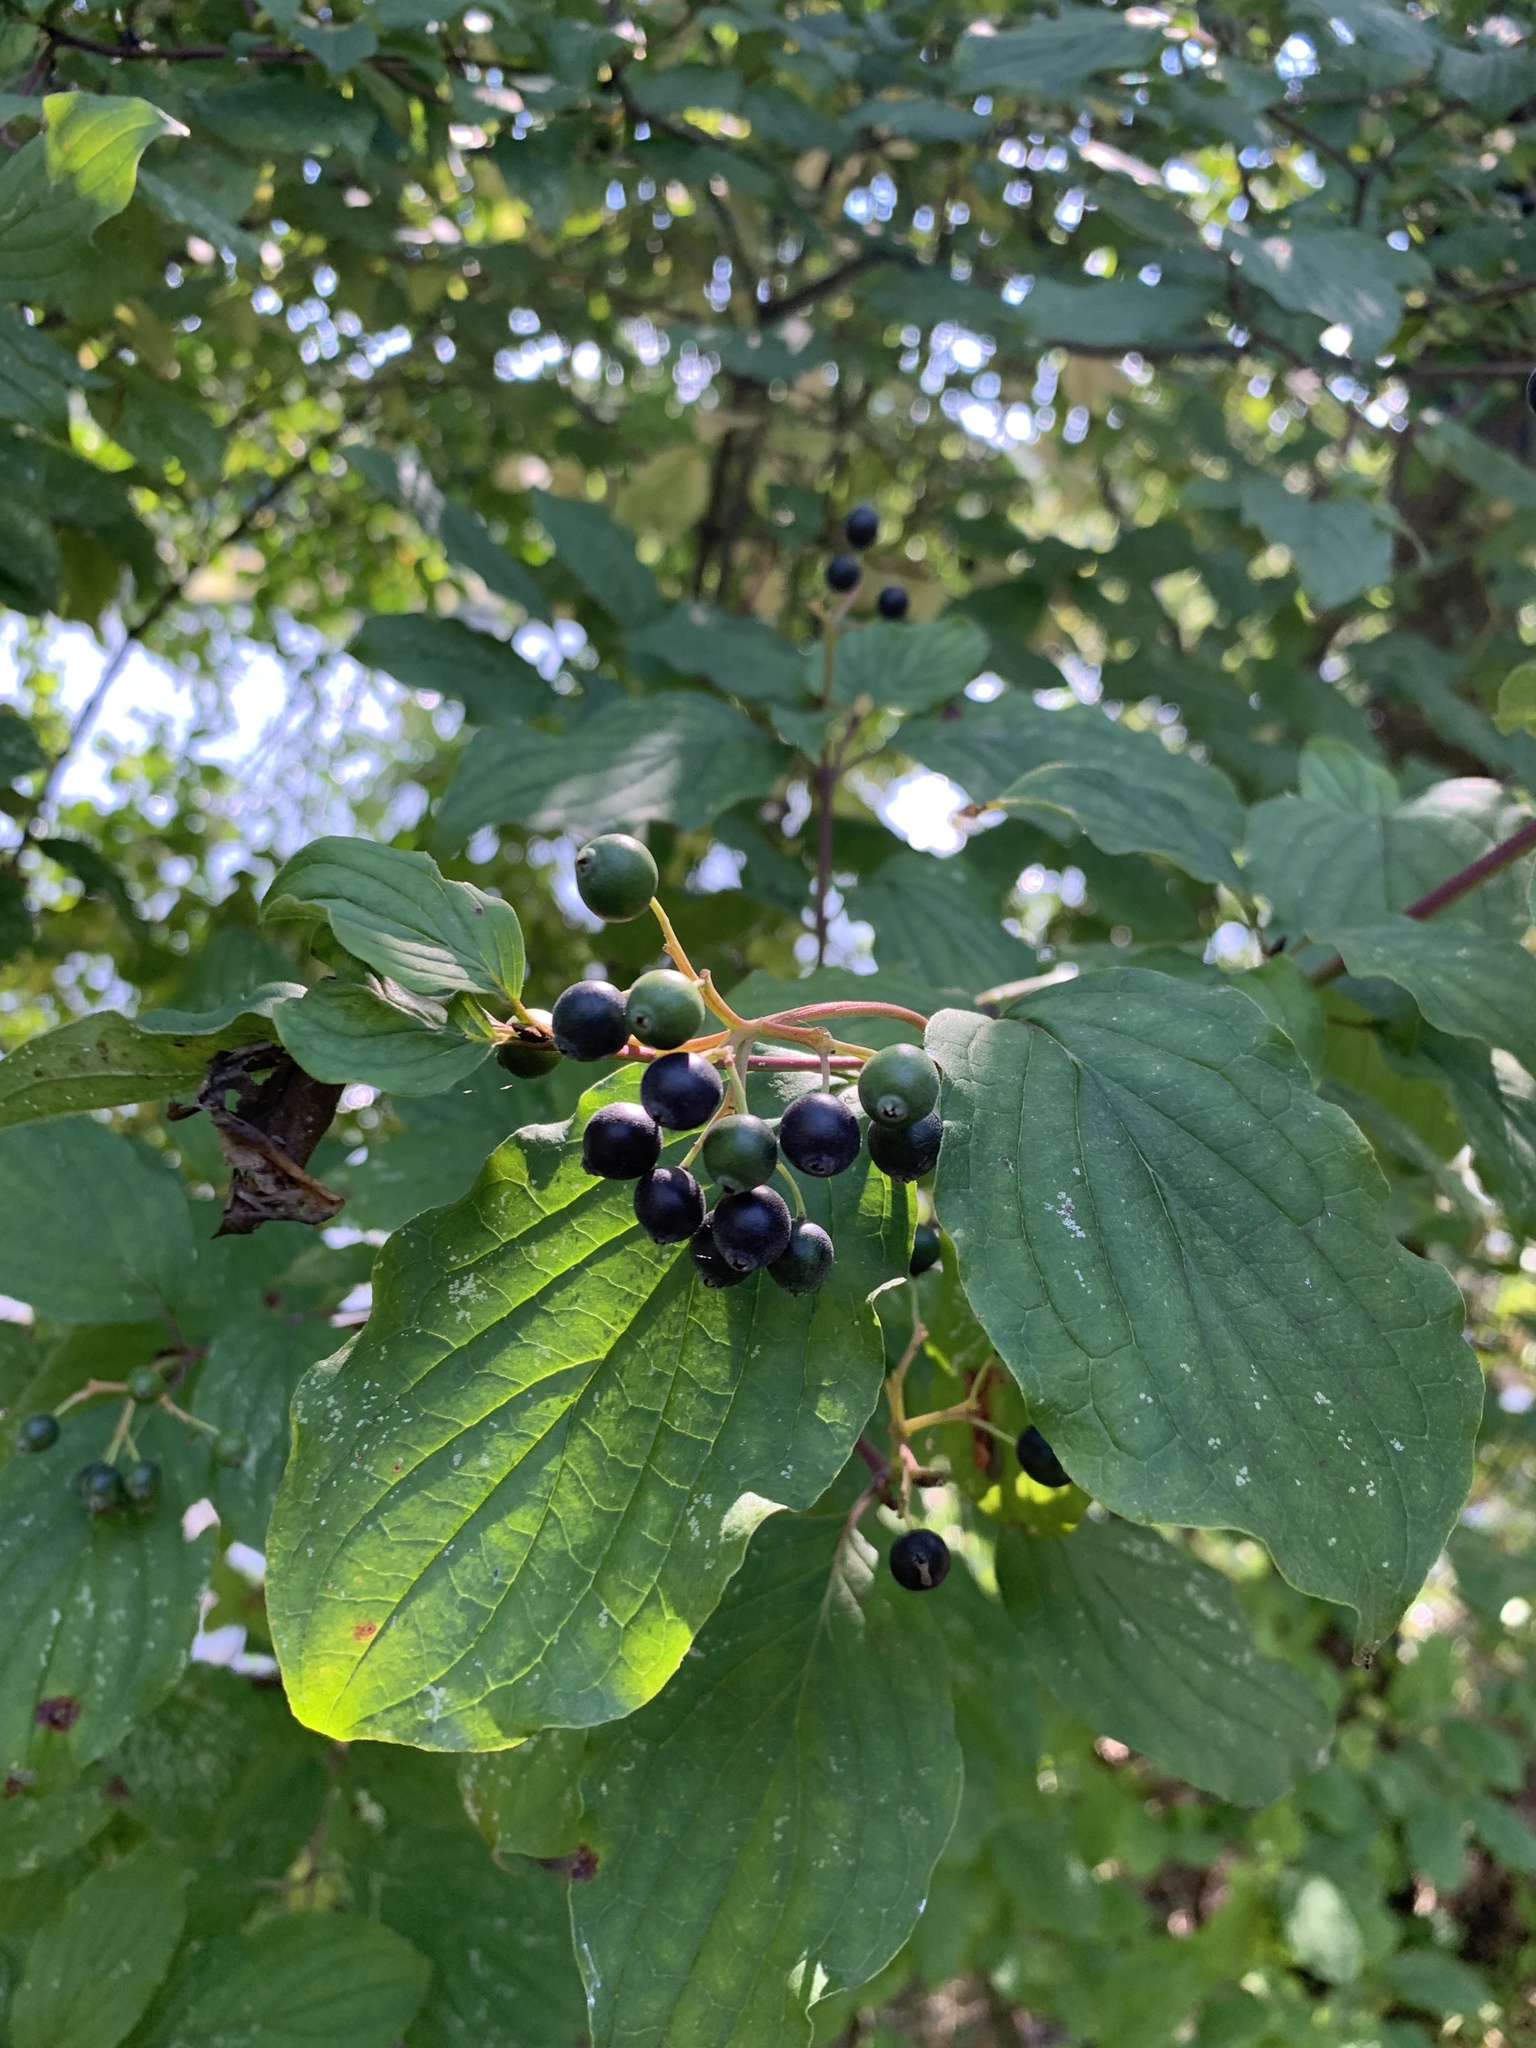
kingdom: Plantae
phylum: Tracheophyta
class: Magnoliopsida
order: Cornales
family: Cornaceae
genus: Cornus
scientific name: Cornus sanguinea
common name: Dogwood
